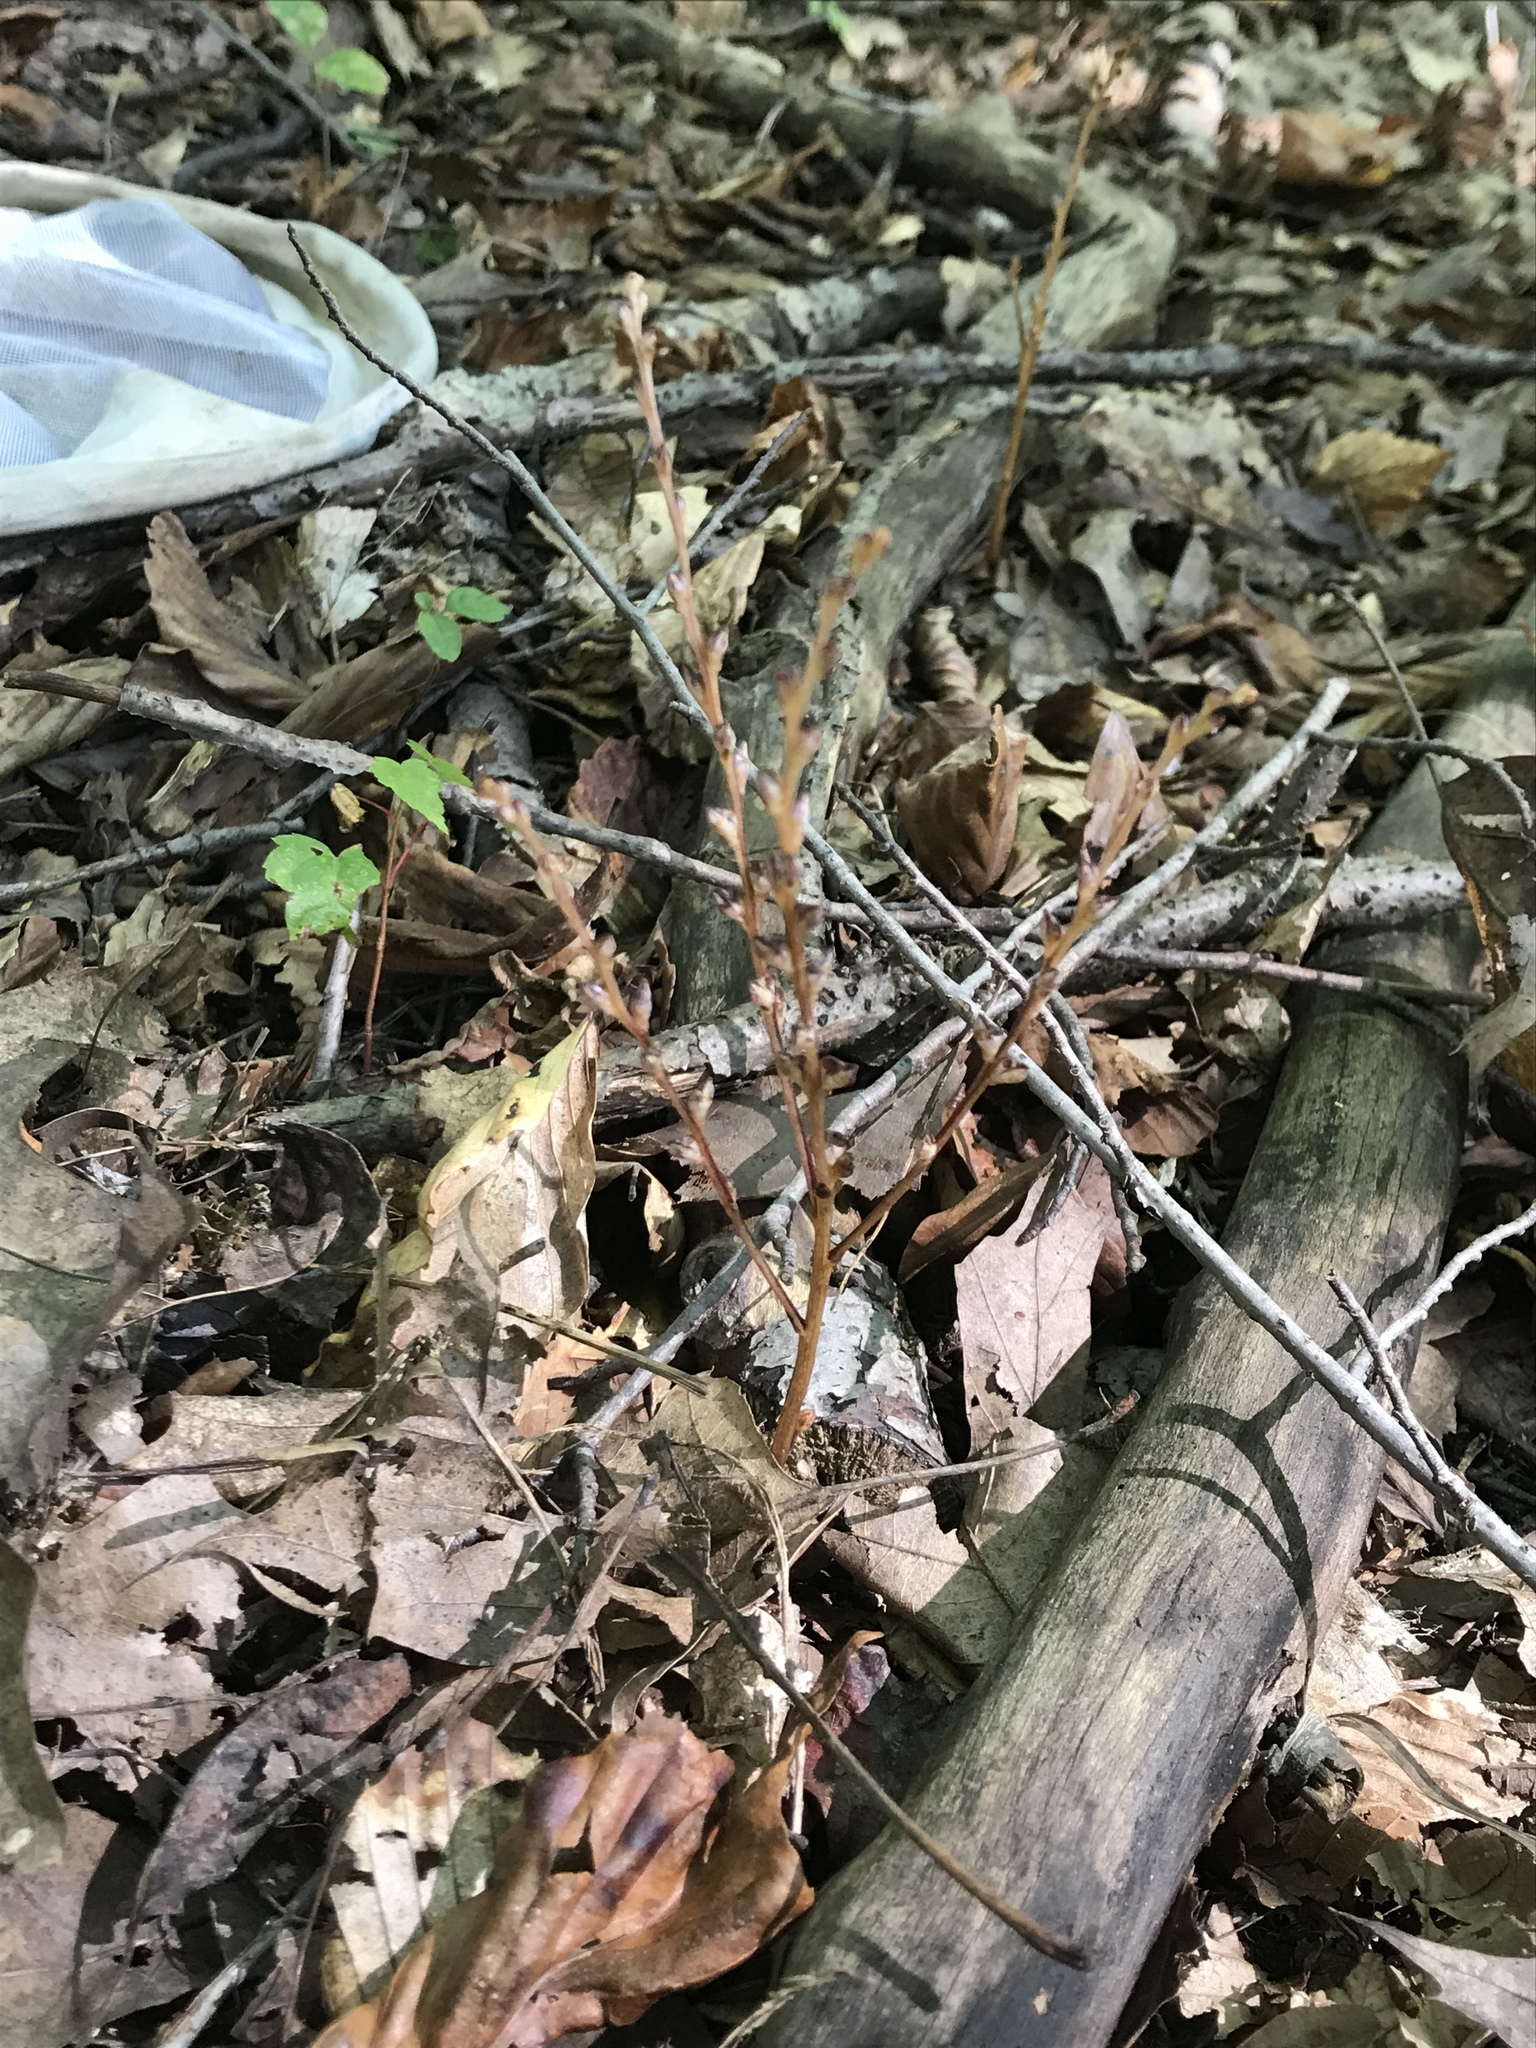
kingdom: Plantae
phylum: Tracheophyta
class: Magnoliopsida
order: Lamiales
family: Orobanchaceae
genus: Epifagus
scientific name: Epifagus virginiana
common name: Beechdrops
